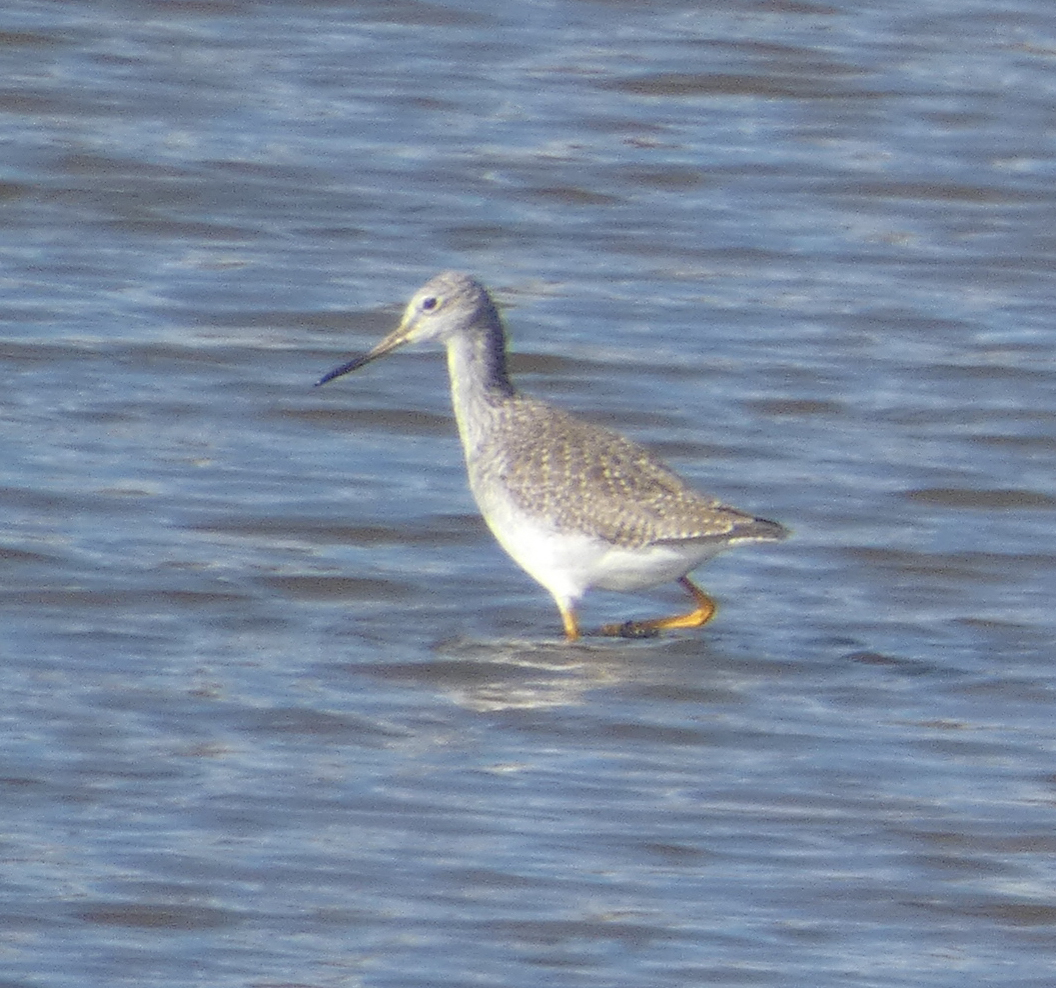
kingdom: Animalia
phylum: Chordata
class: Aves
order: Charadriiformes
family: Scolopacidae
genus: Tringa
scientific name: Tringa melanoleuca
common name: Greater yellowlegs
